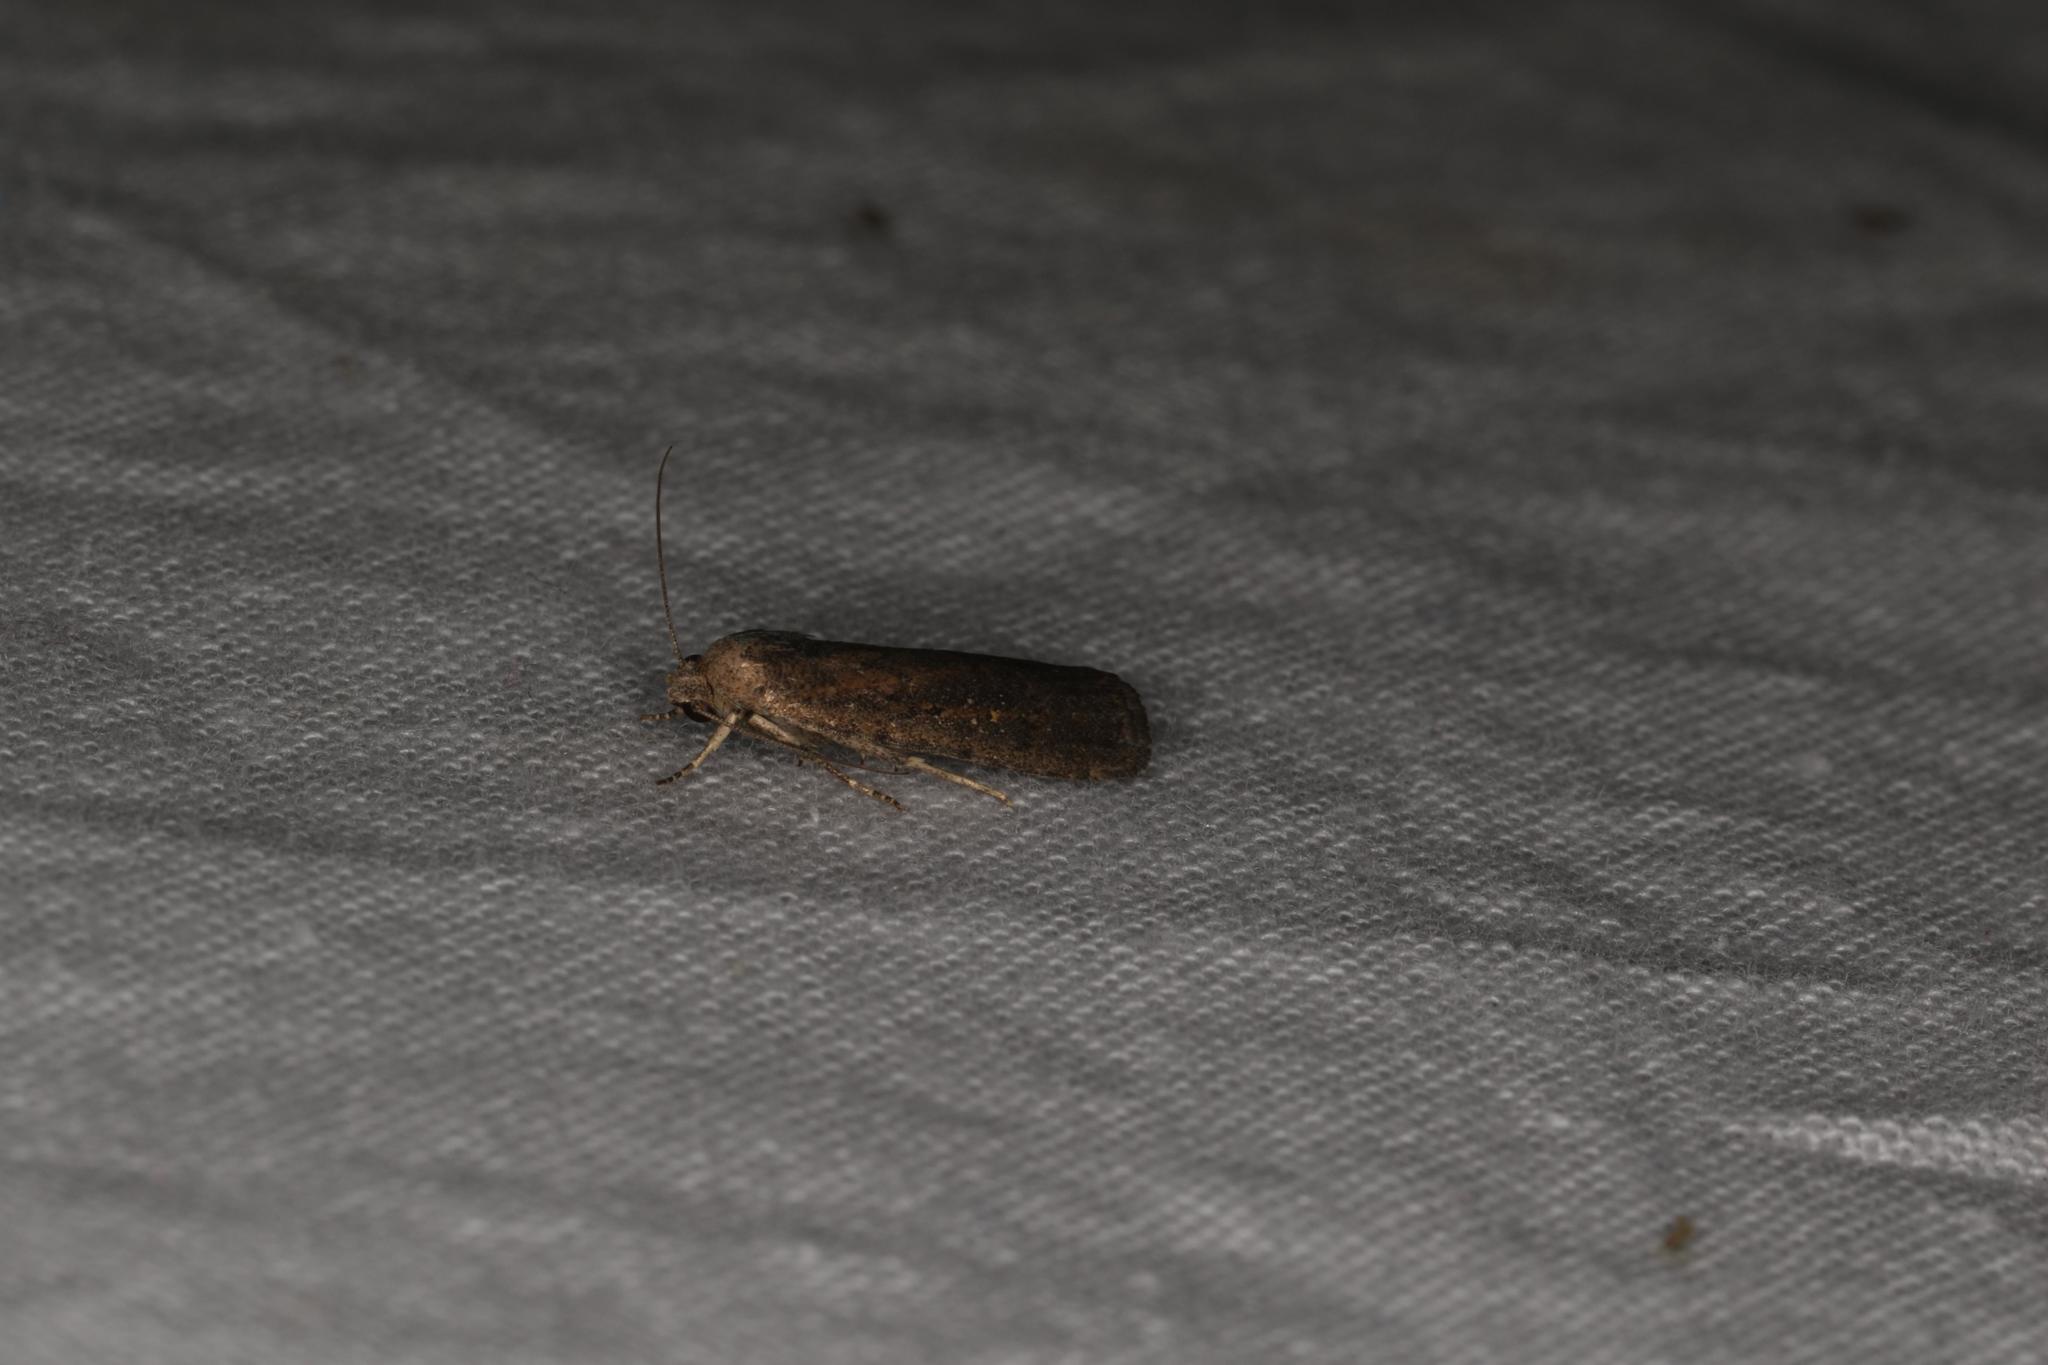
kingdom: Animalia
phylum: Arthropoda
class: Insecta
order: Lepidoptera
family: Noctuidae
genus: Athetis
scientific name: Athetis tenuis
